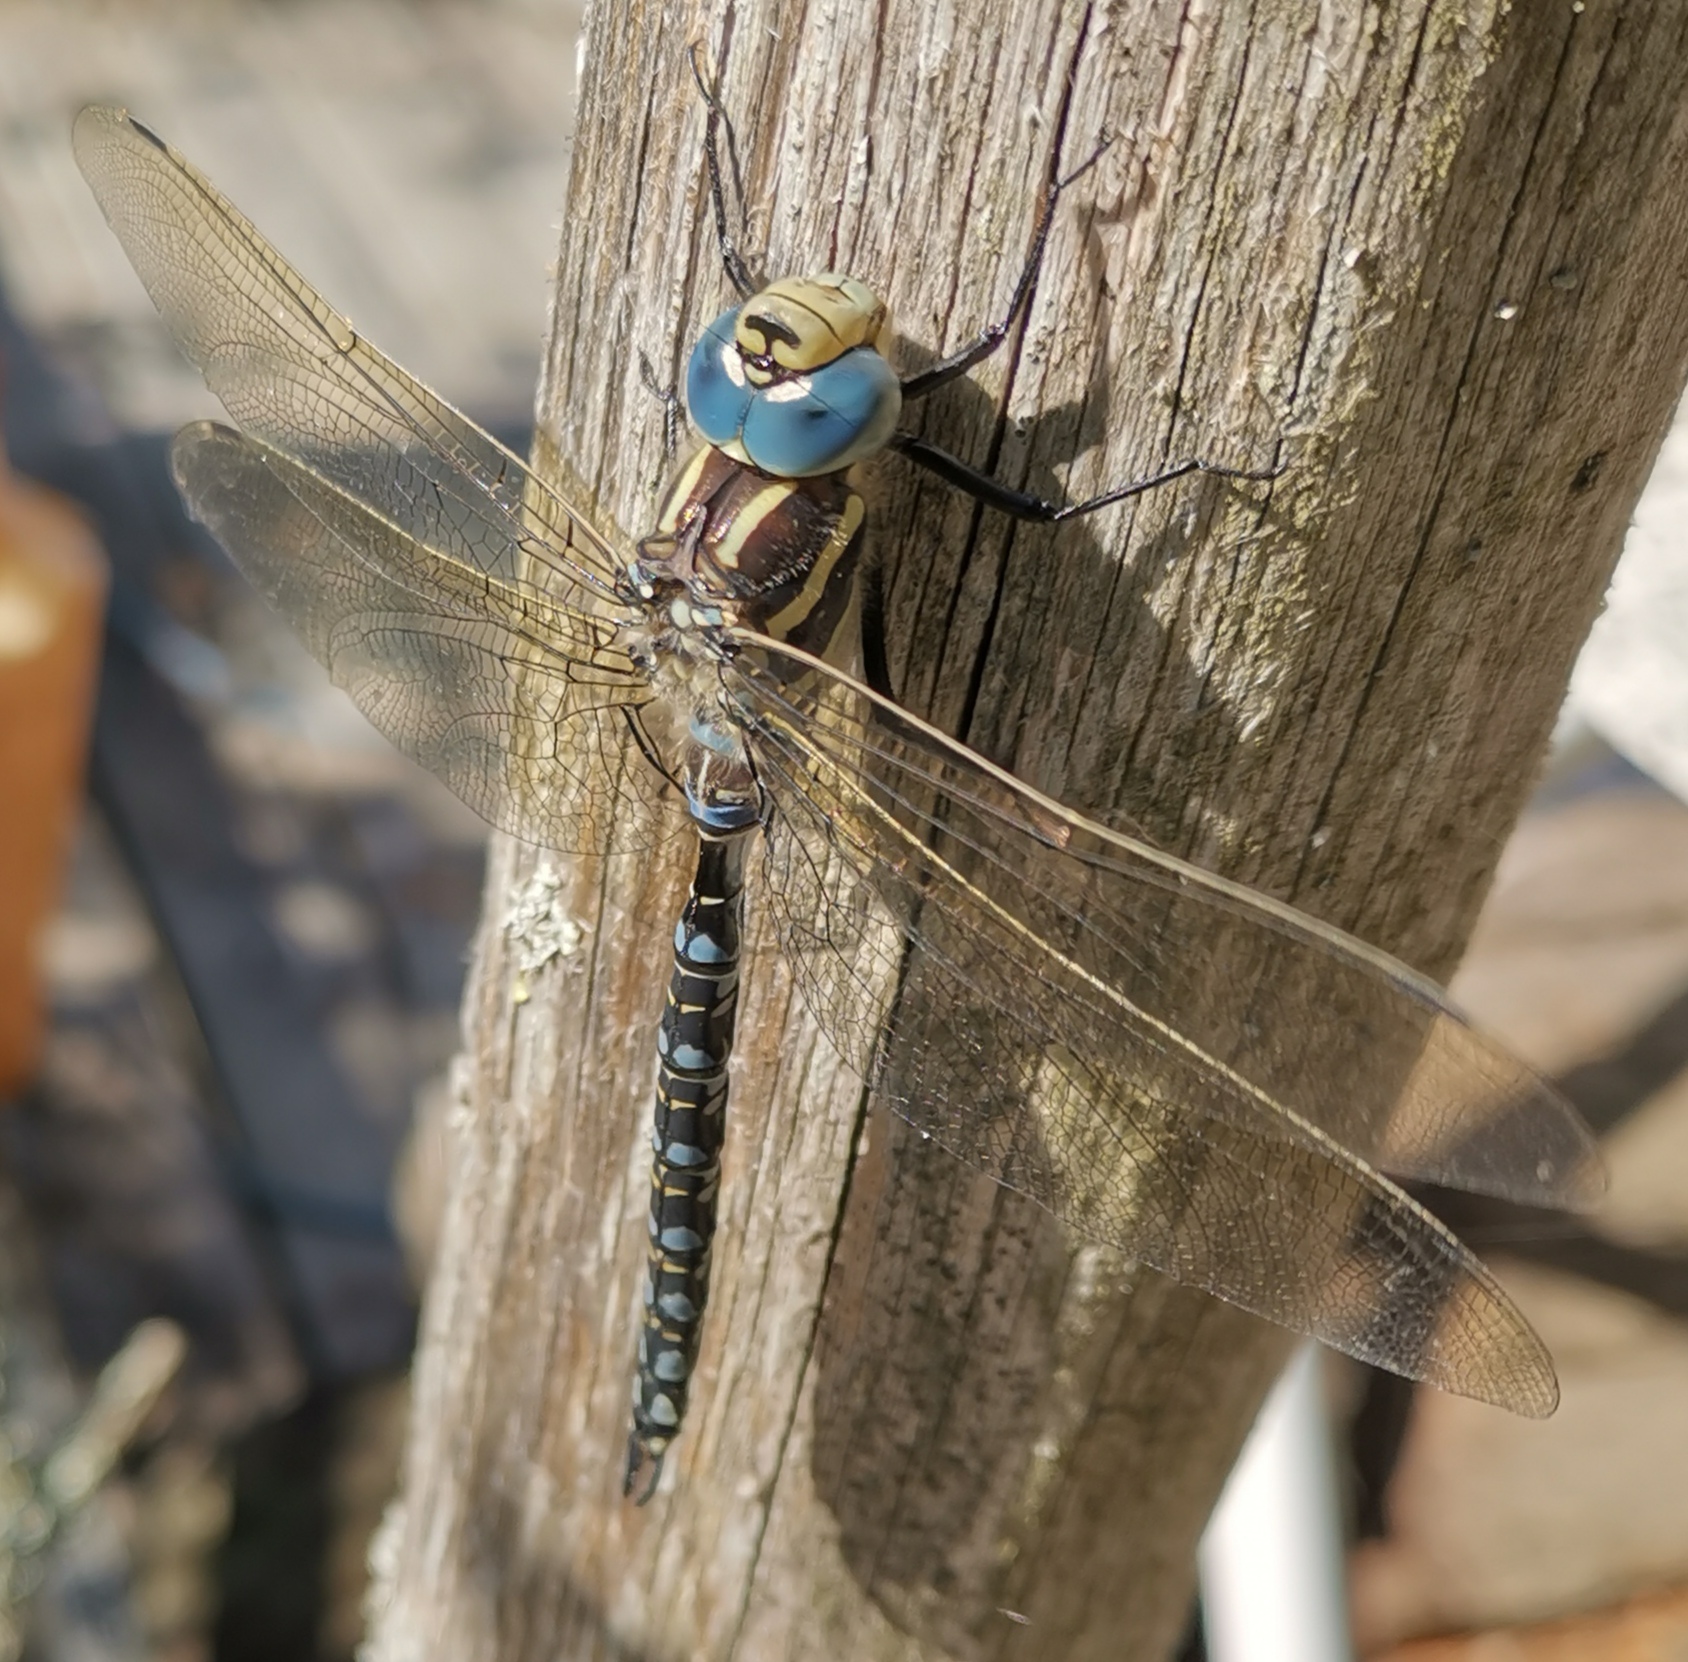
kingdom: Animalia
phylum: Arthropoda
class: Insecta
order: Odonata
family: Aeshnidae
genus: Aeshna
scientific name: Aeshna serrata
